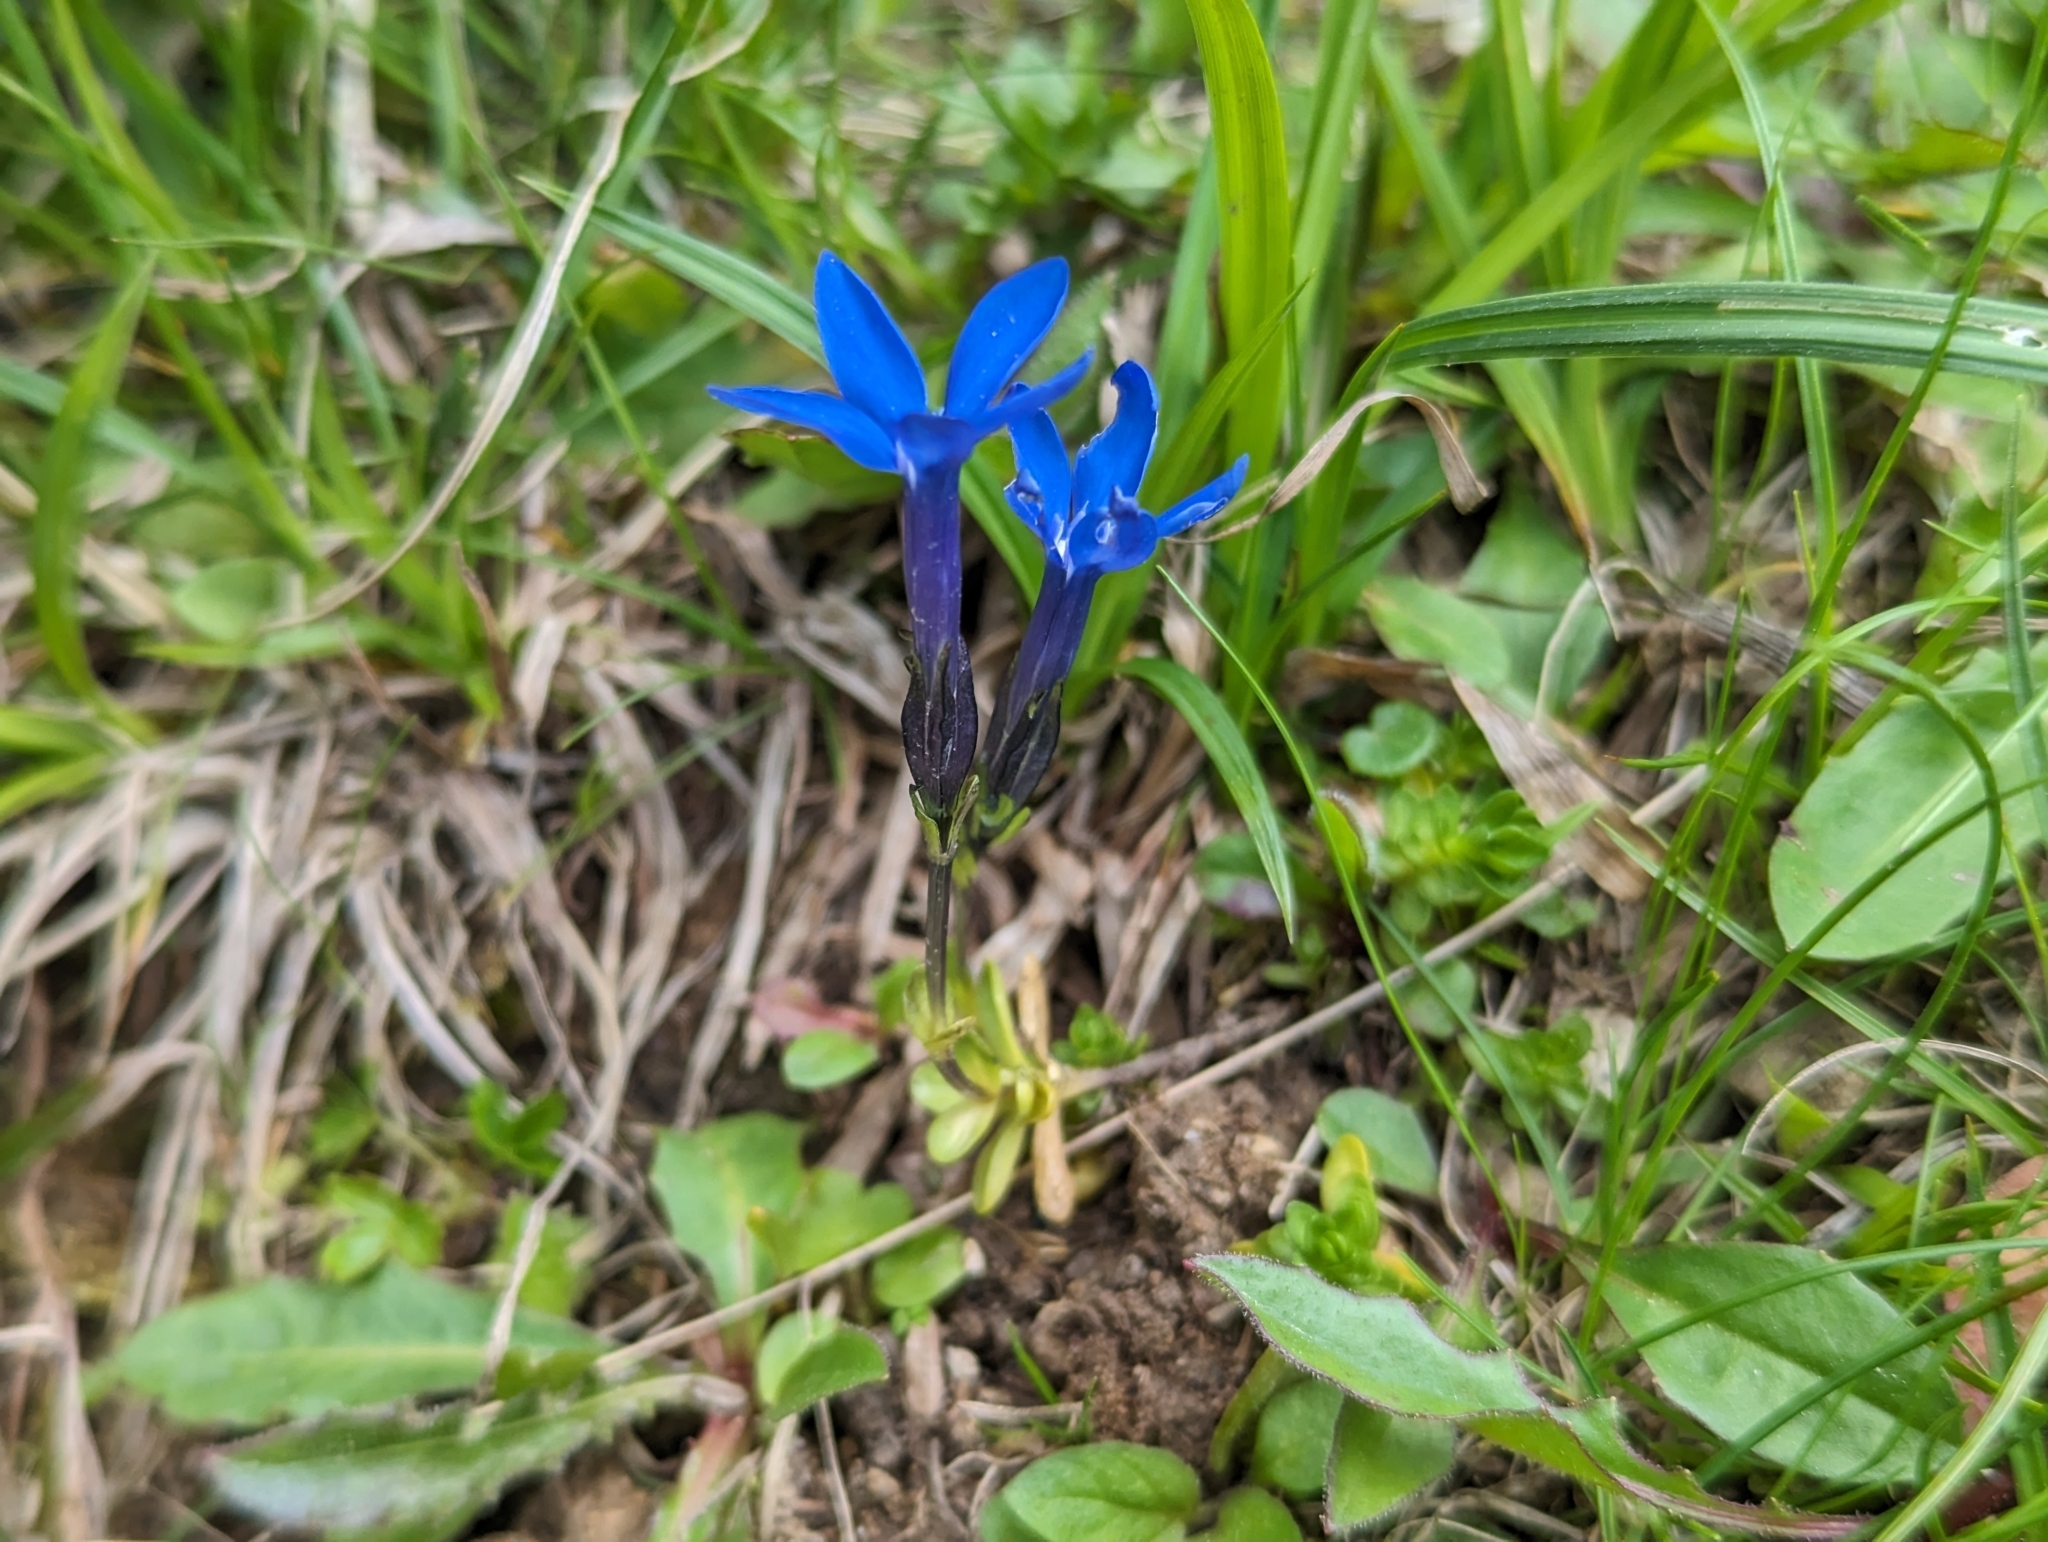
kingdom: Plantae
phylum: Tracheophyta
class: Magnoliopsida
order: Gentianales
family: Gentianaceae
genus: Gentiana
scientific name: Gentiana bavarica
